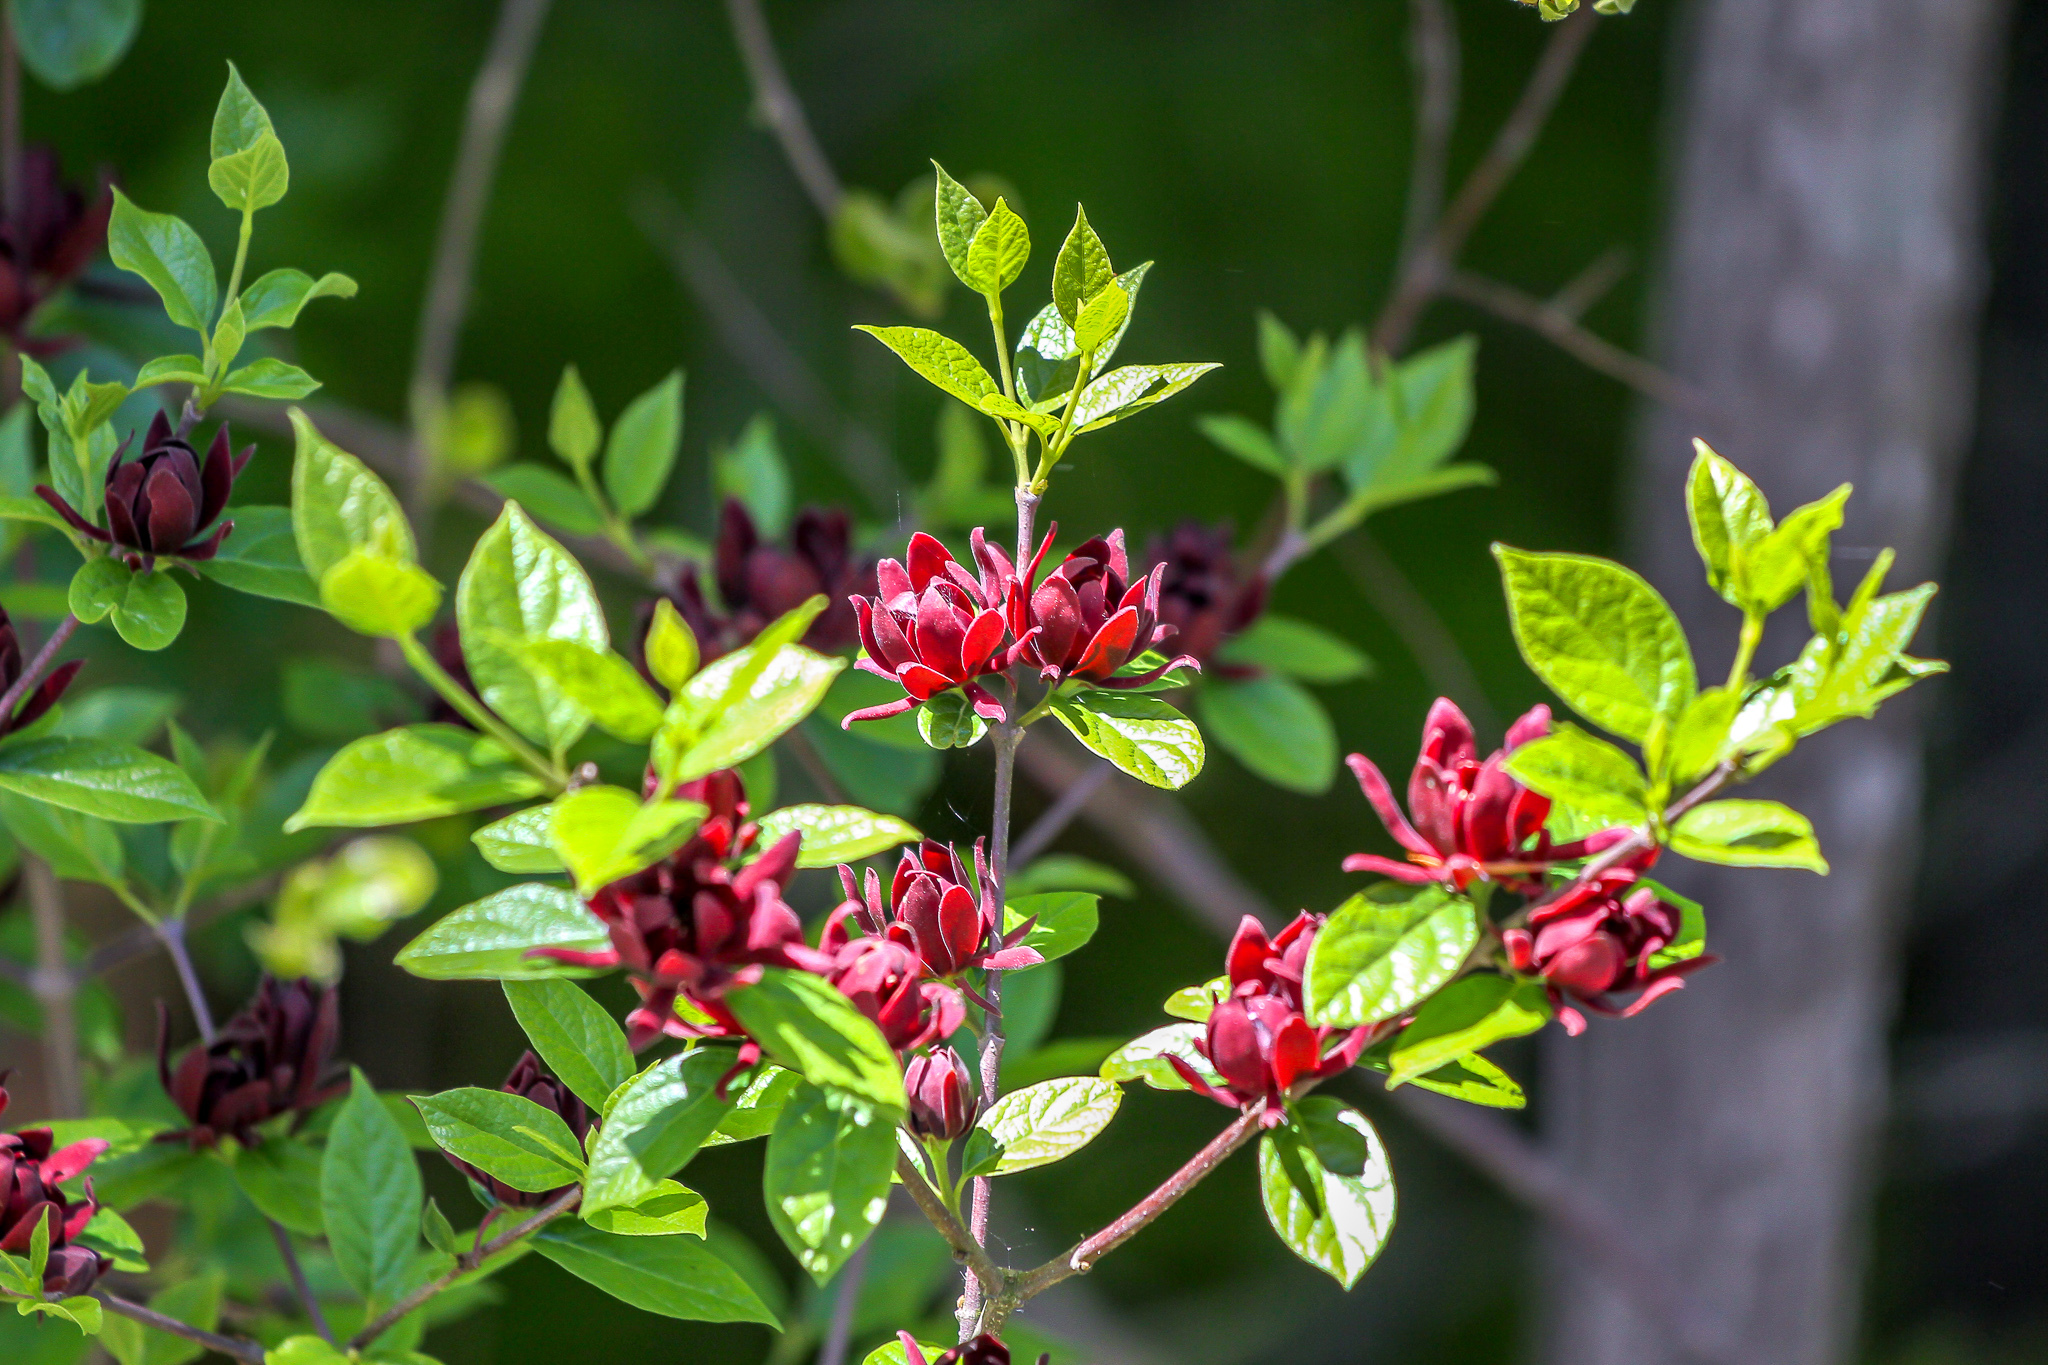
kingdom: Plantae
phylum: Tracheophyta
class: Magnoliopsida
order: Laurales
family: Calycanthaceae
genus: Calycanthus
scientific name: Calycanthus floridus
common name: Carolina-allspice
